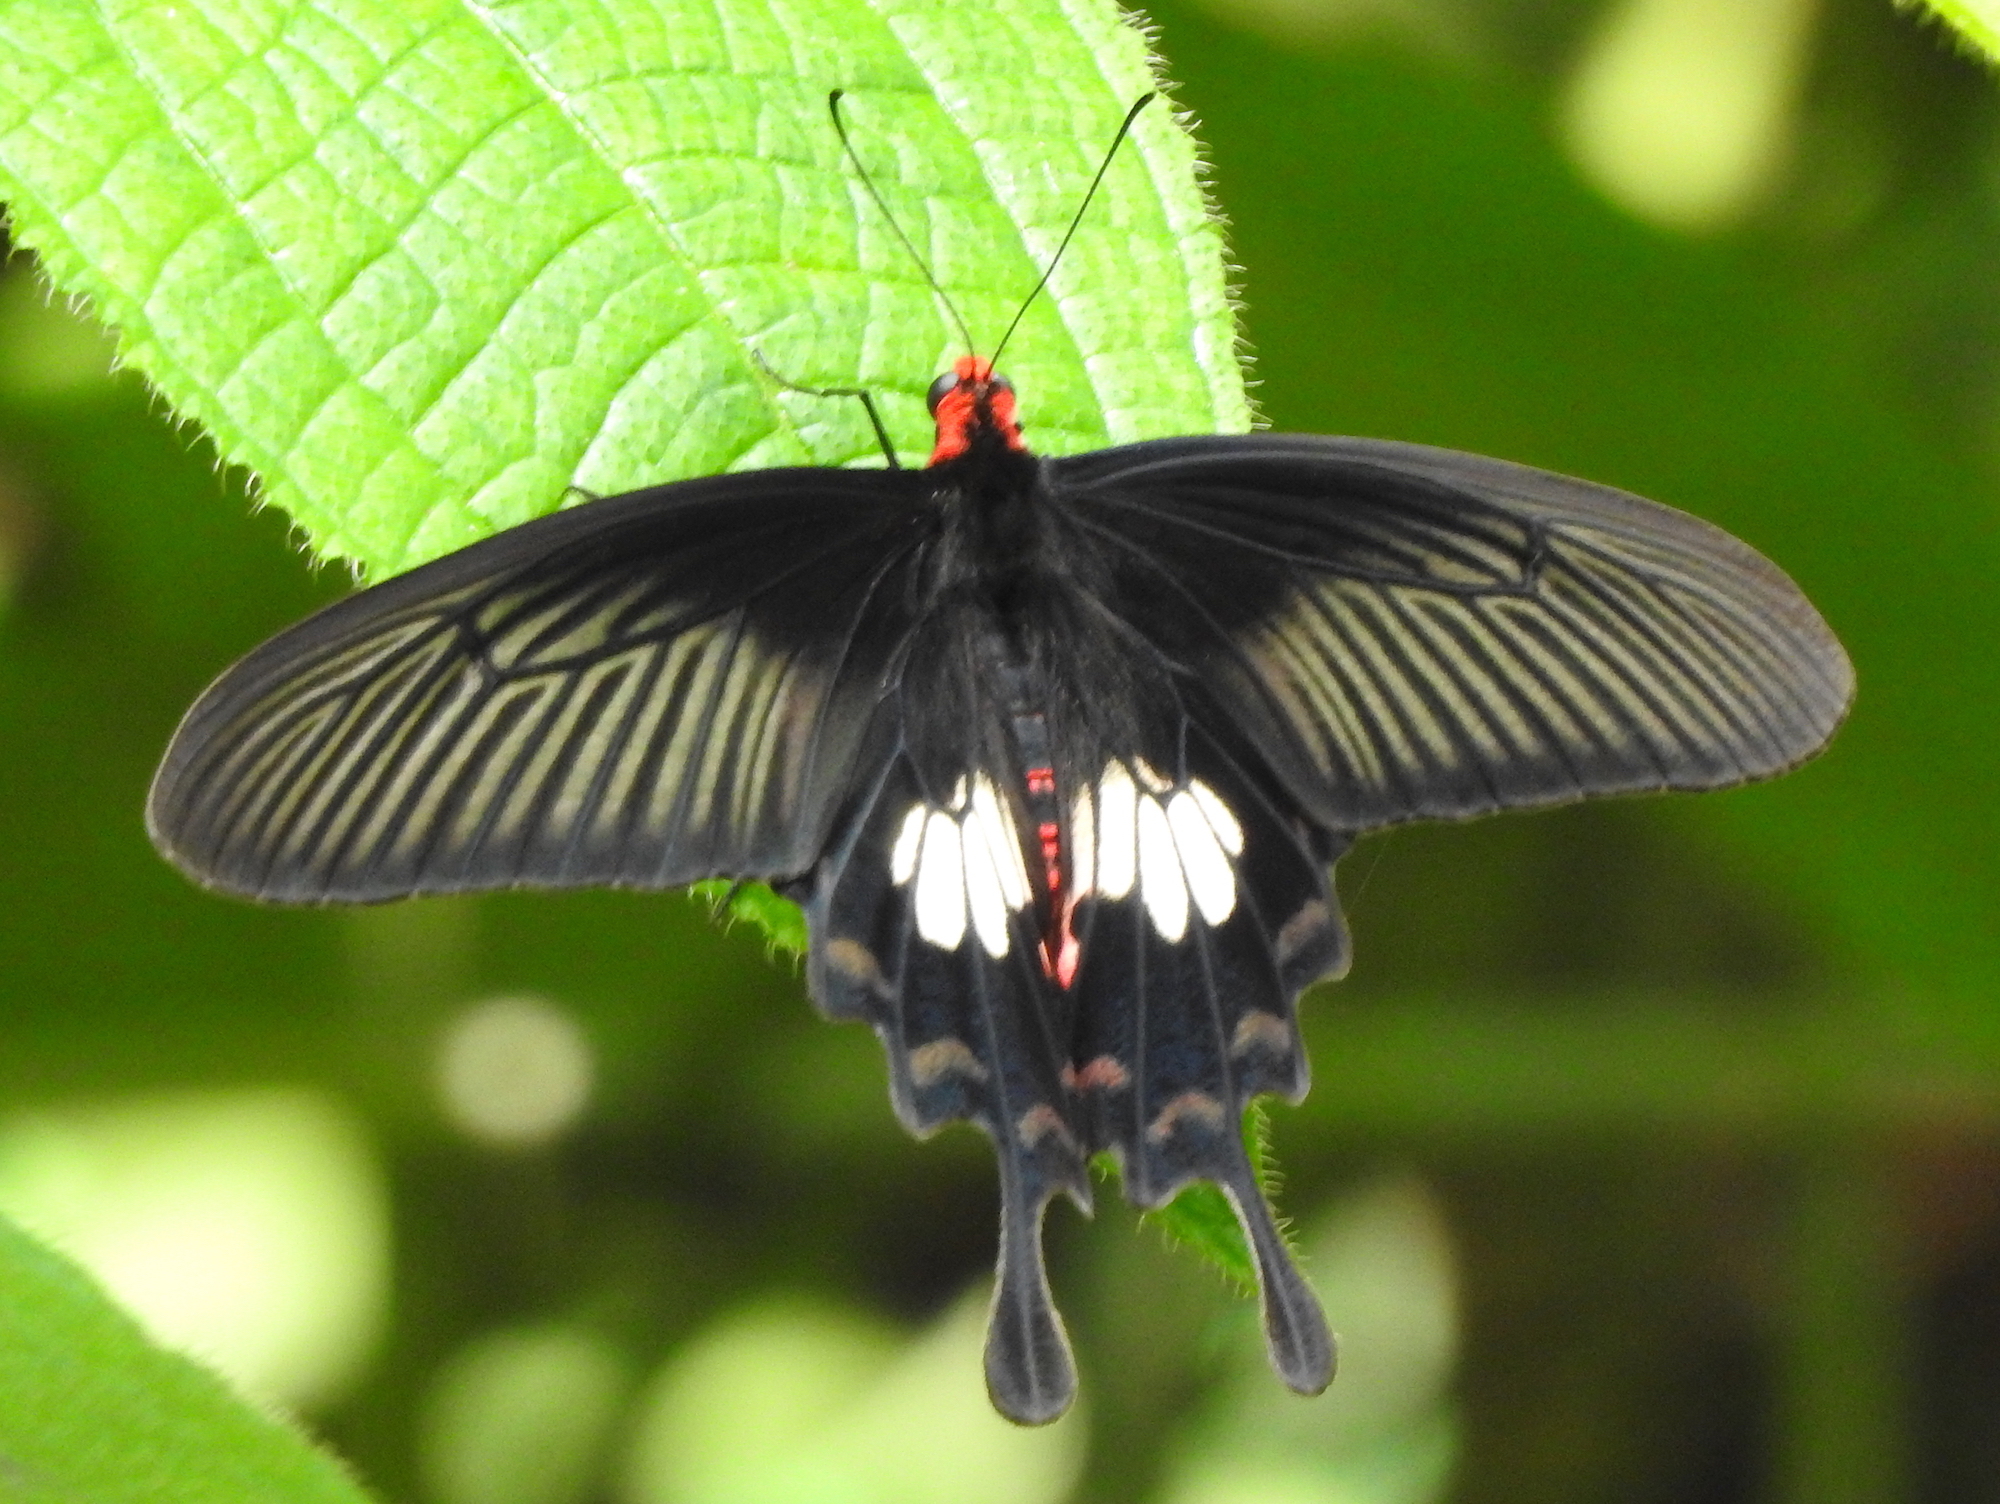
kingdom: Animalia
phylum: Arthropoda
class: Insecta
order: Lepidoptera
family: Papilionidae
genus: Pachliopta
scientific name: Pachliopta aristolochiae
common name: Common rose
